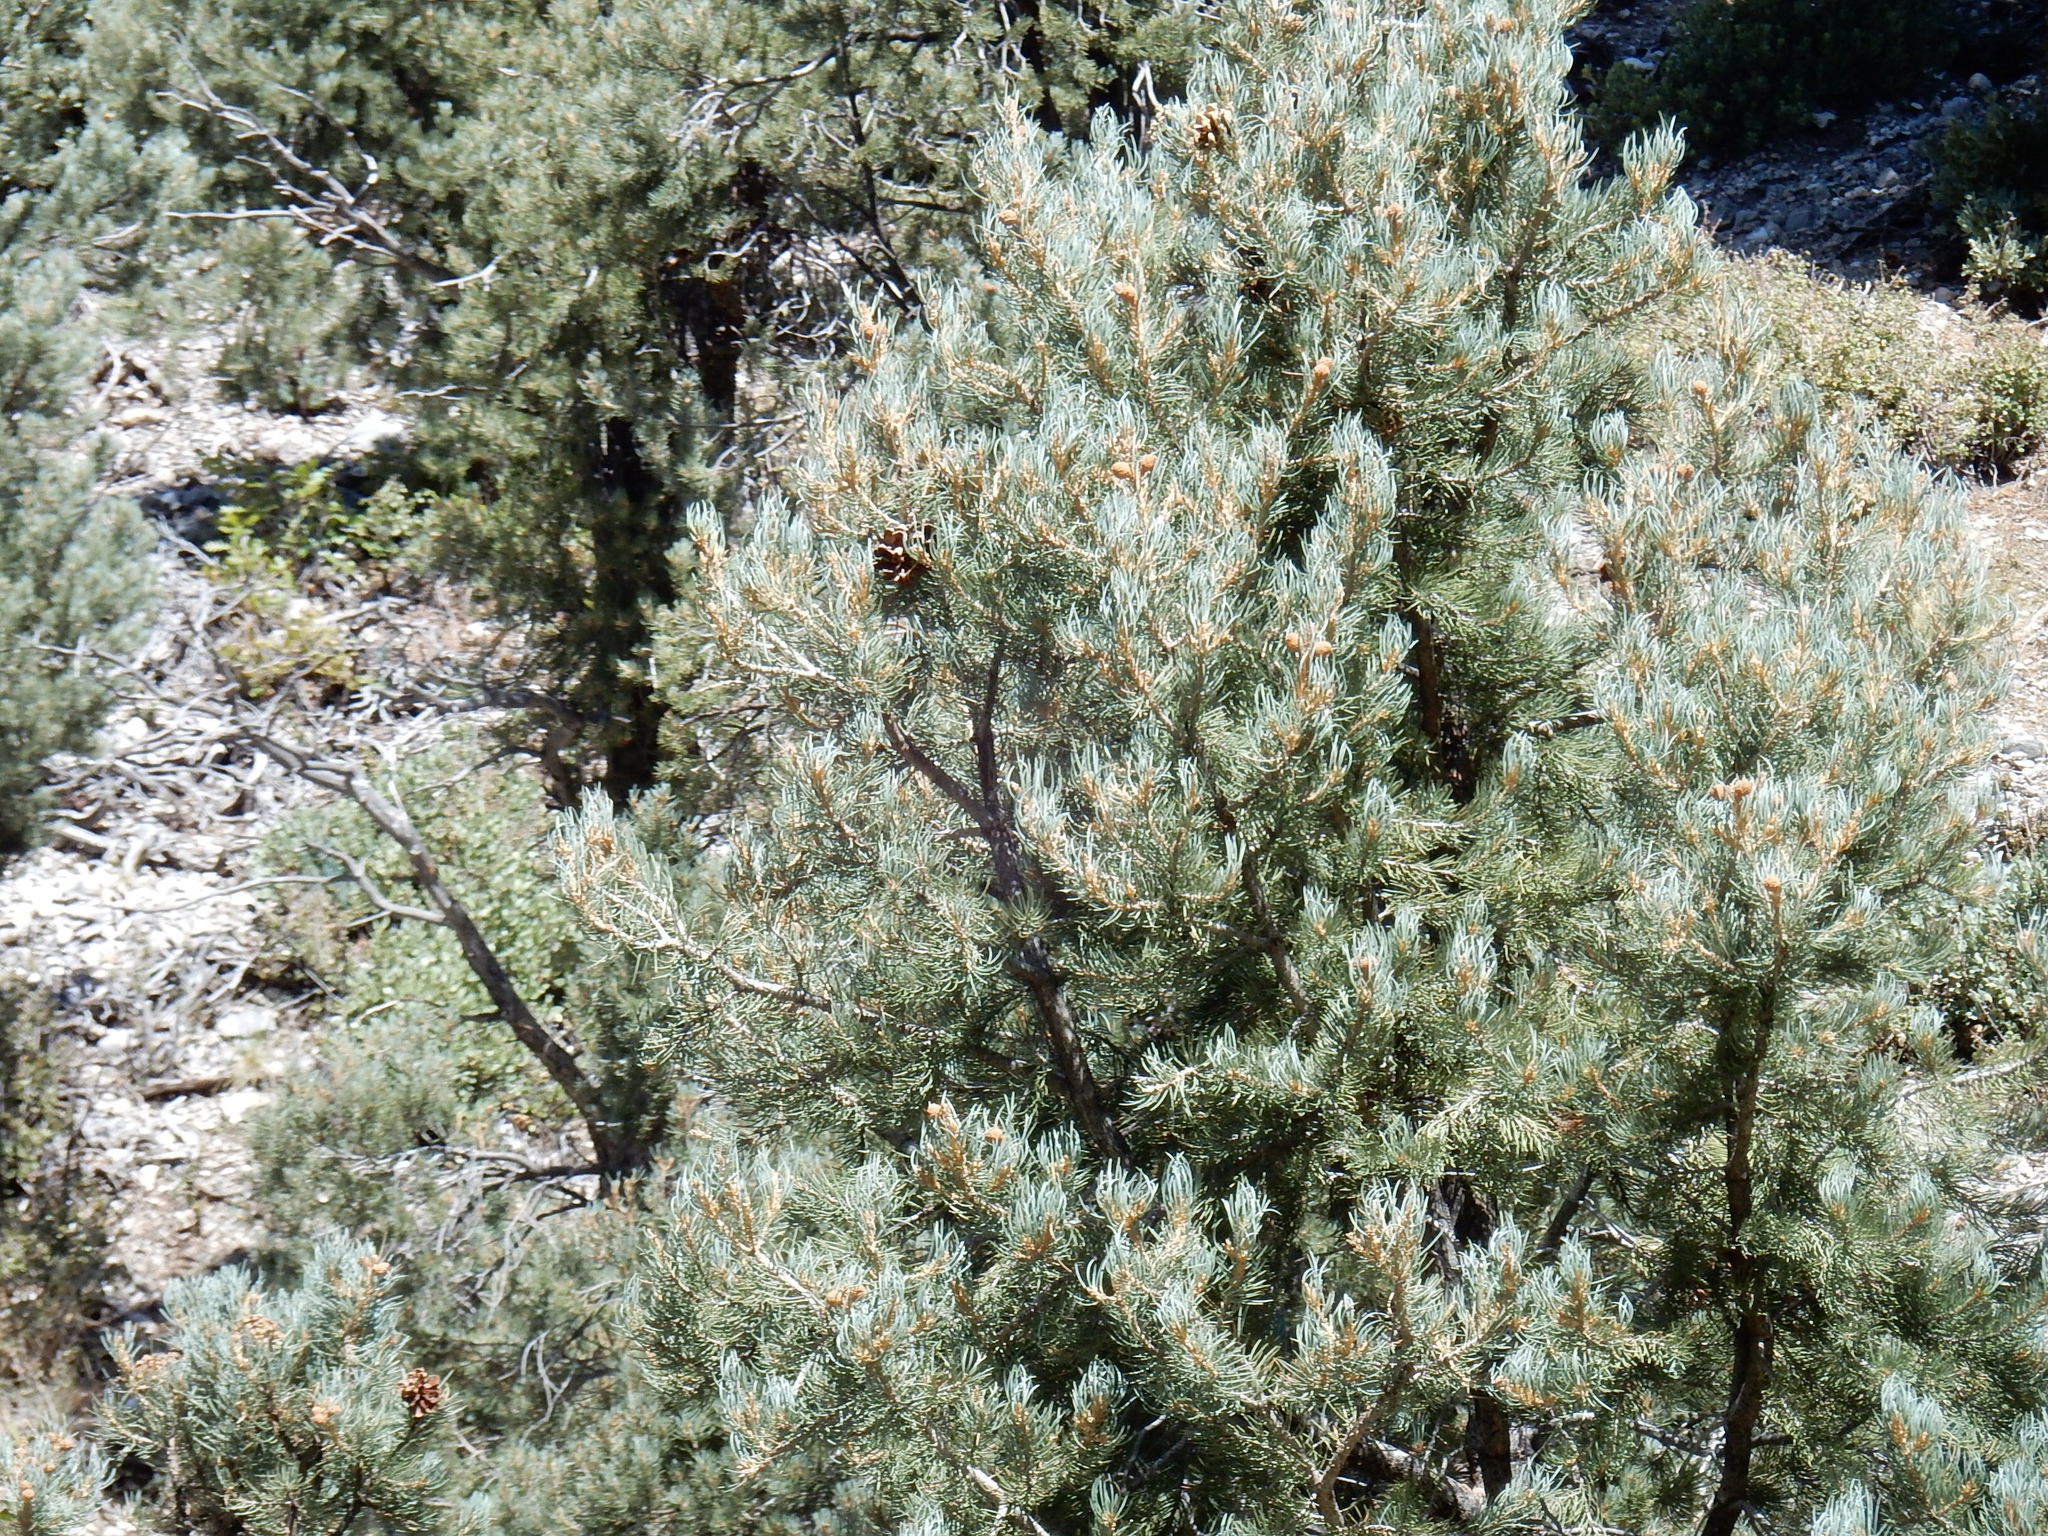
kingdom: Plantae
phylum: Tracheophyta
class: Pinopsida
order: Pinales
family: Pinaceae
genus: Pinus
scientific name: Pinus monophylla
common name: One-leaved nut pine
